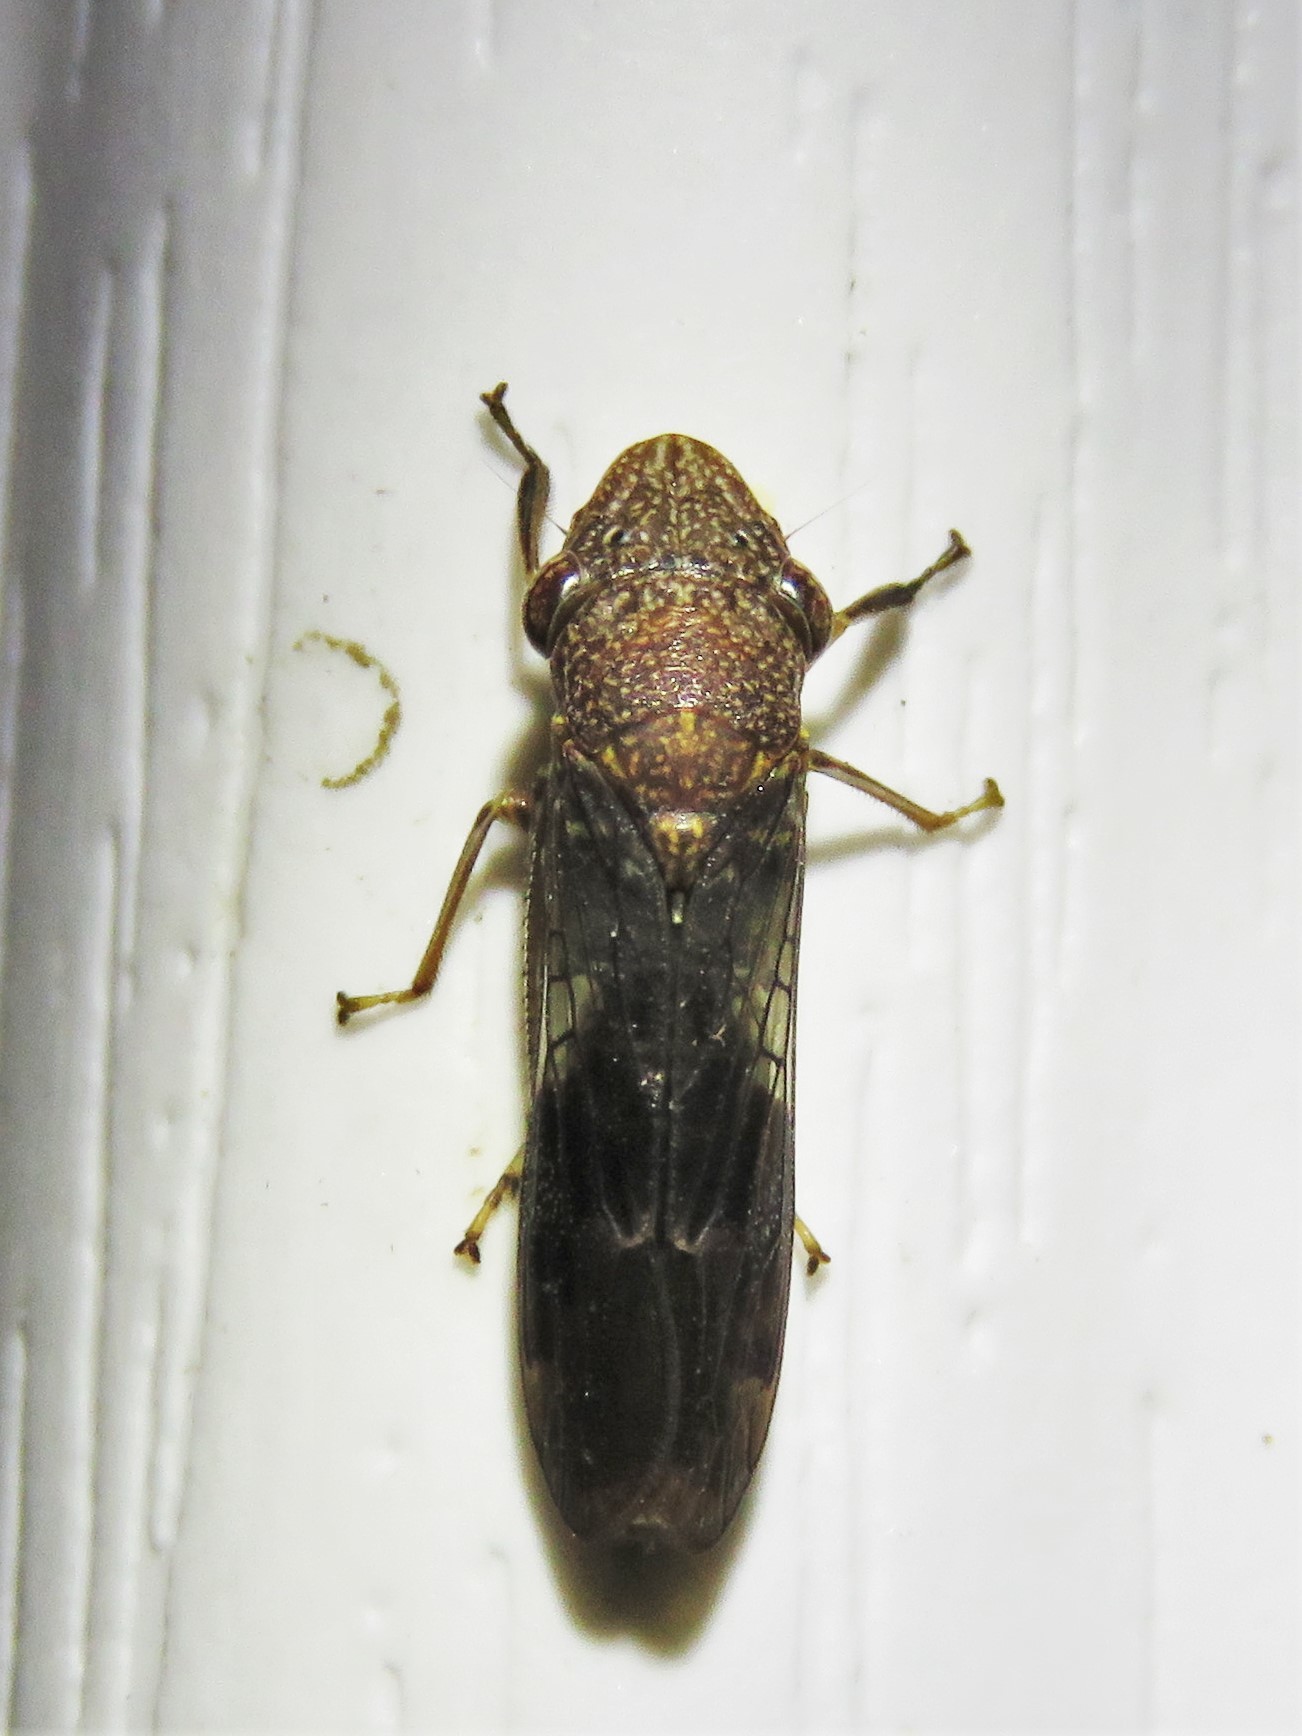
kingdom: Animalia
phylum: Arthropoda
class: Insecta
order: Hemiptera
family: Cicadellidae
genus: Homalodisca
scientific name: Homalodisca vitripennis
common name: Glassy-winged sharpshooter
